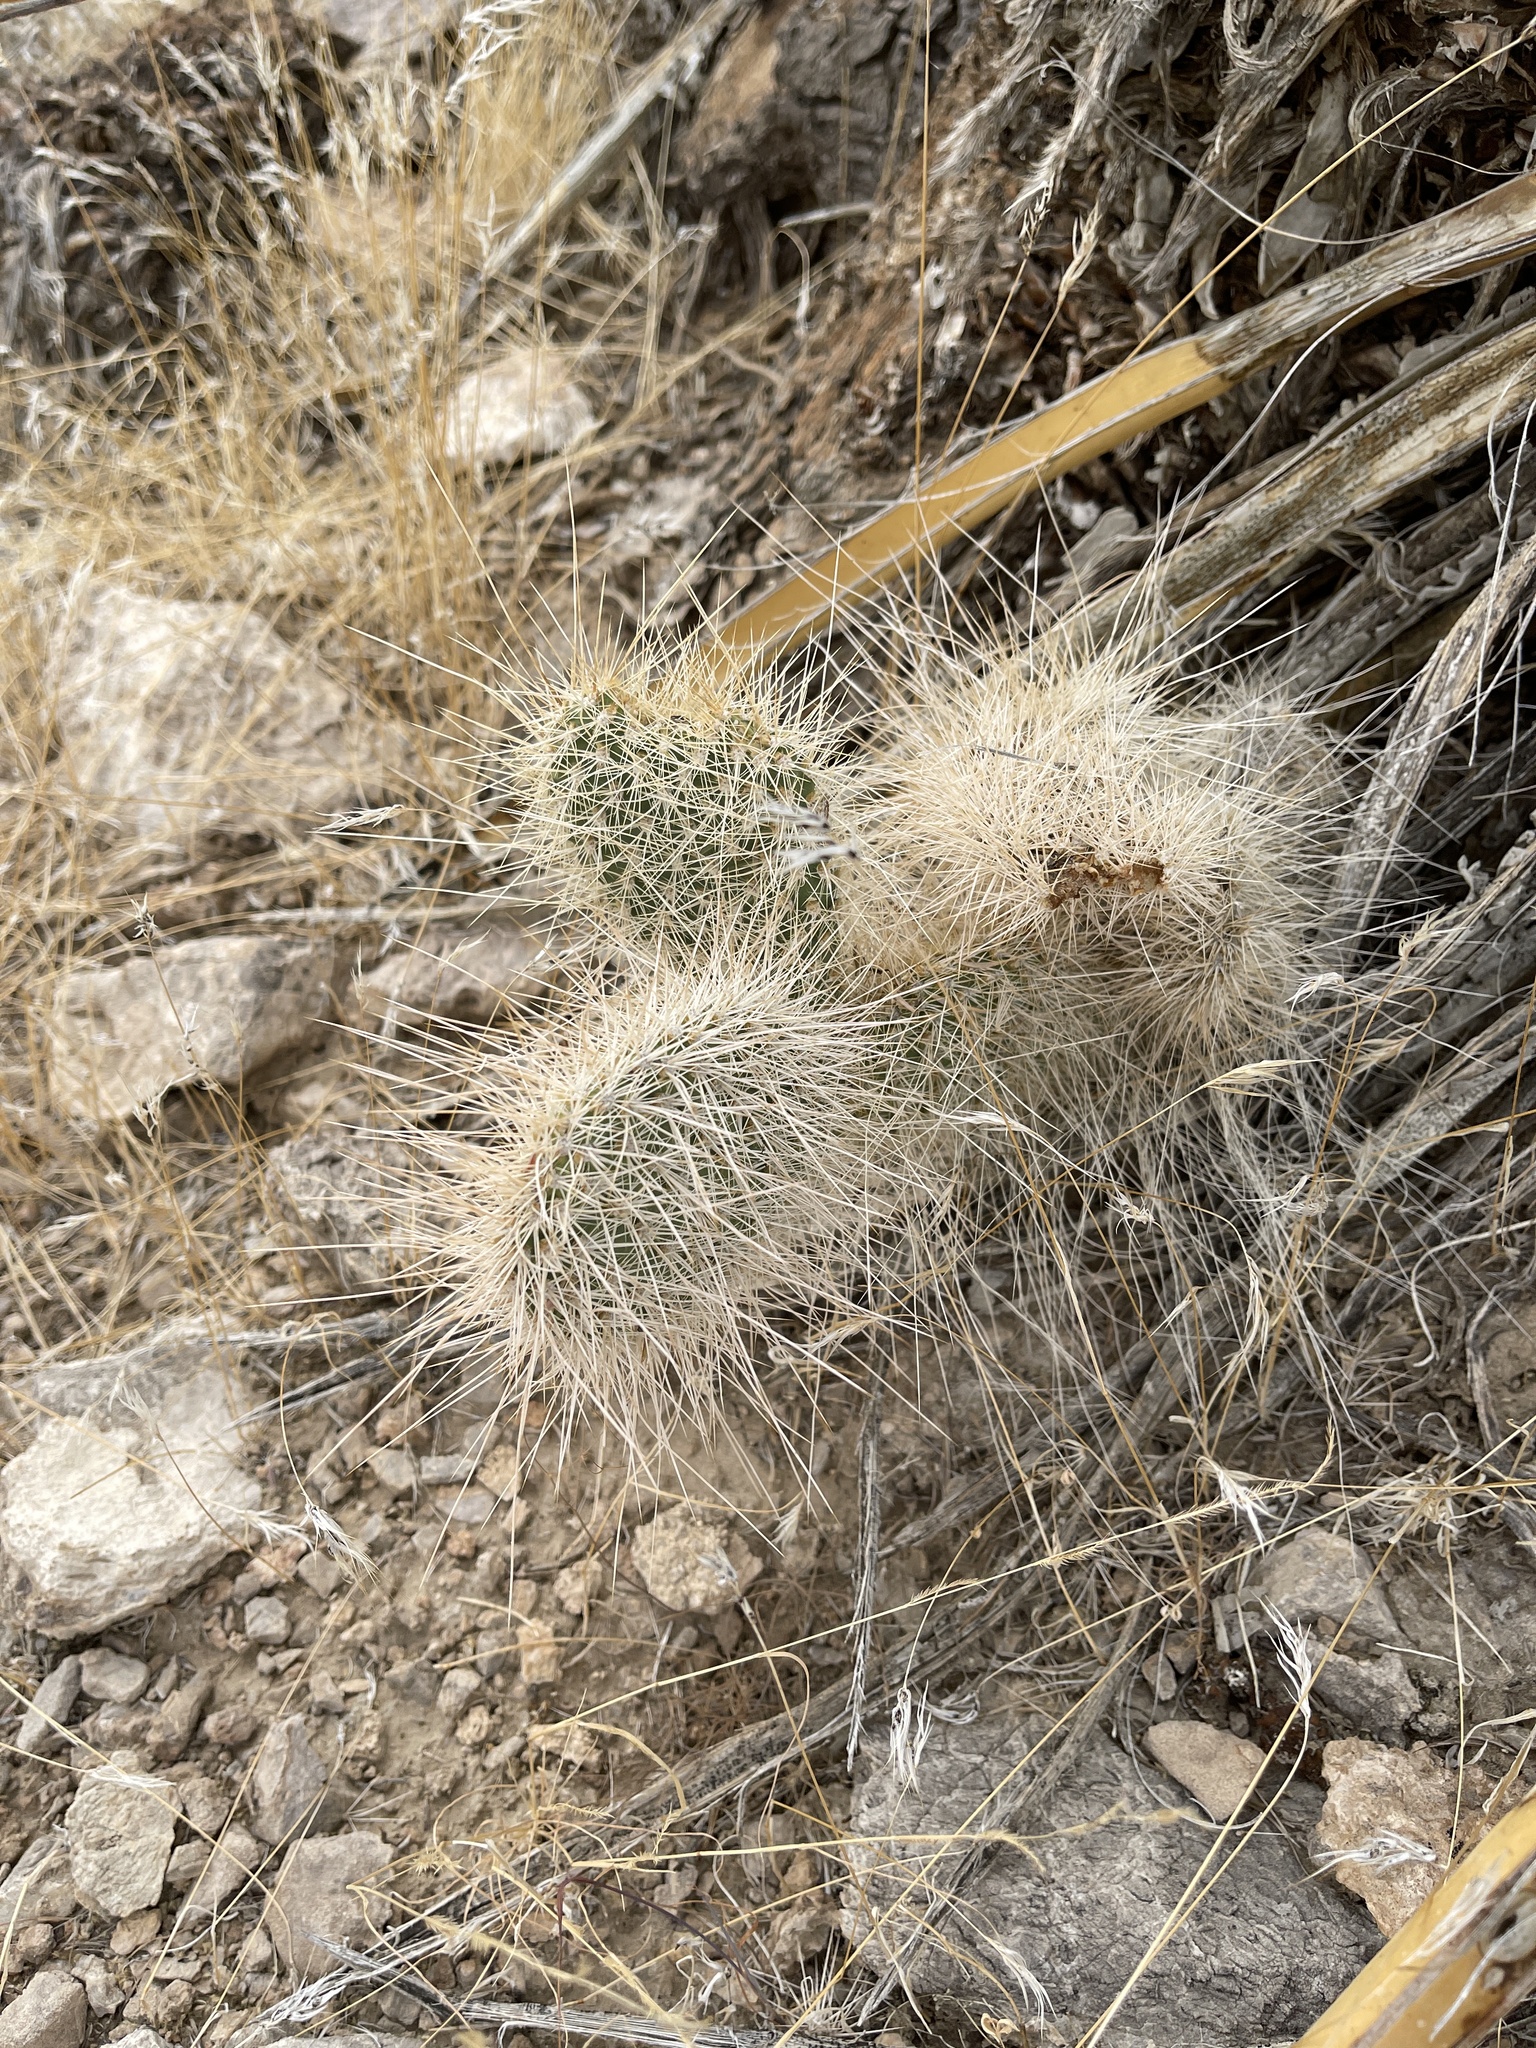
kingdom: Plantae
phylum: Tracheophyta
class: Magnoliopsida
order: Caryophyllales
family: Cactaceae
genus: Opuntia
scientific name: Opuntia polyacantha
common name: Plains prickly-pear
